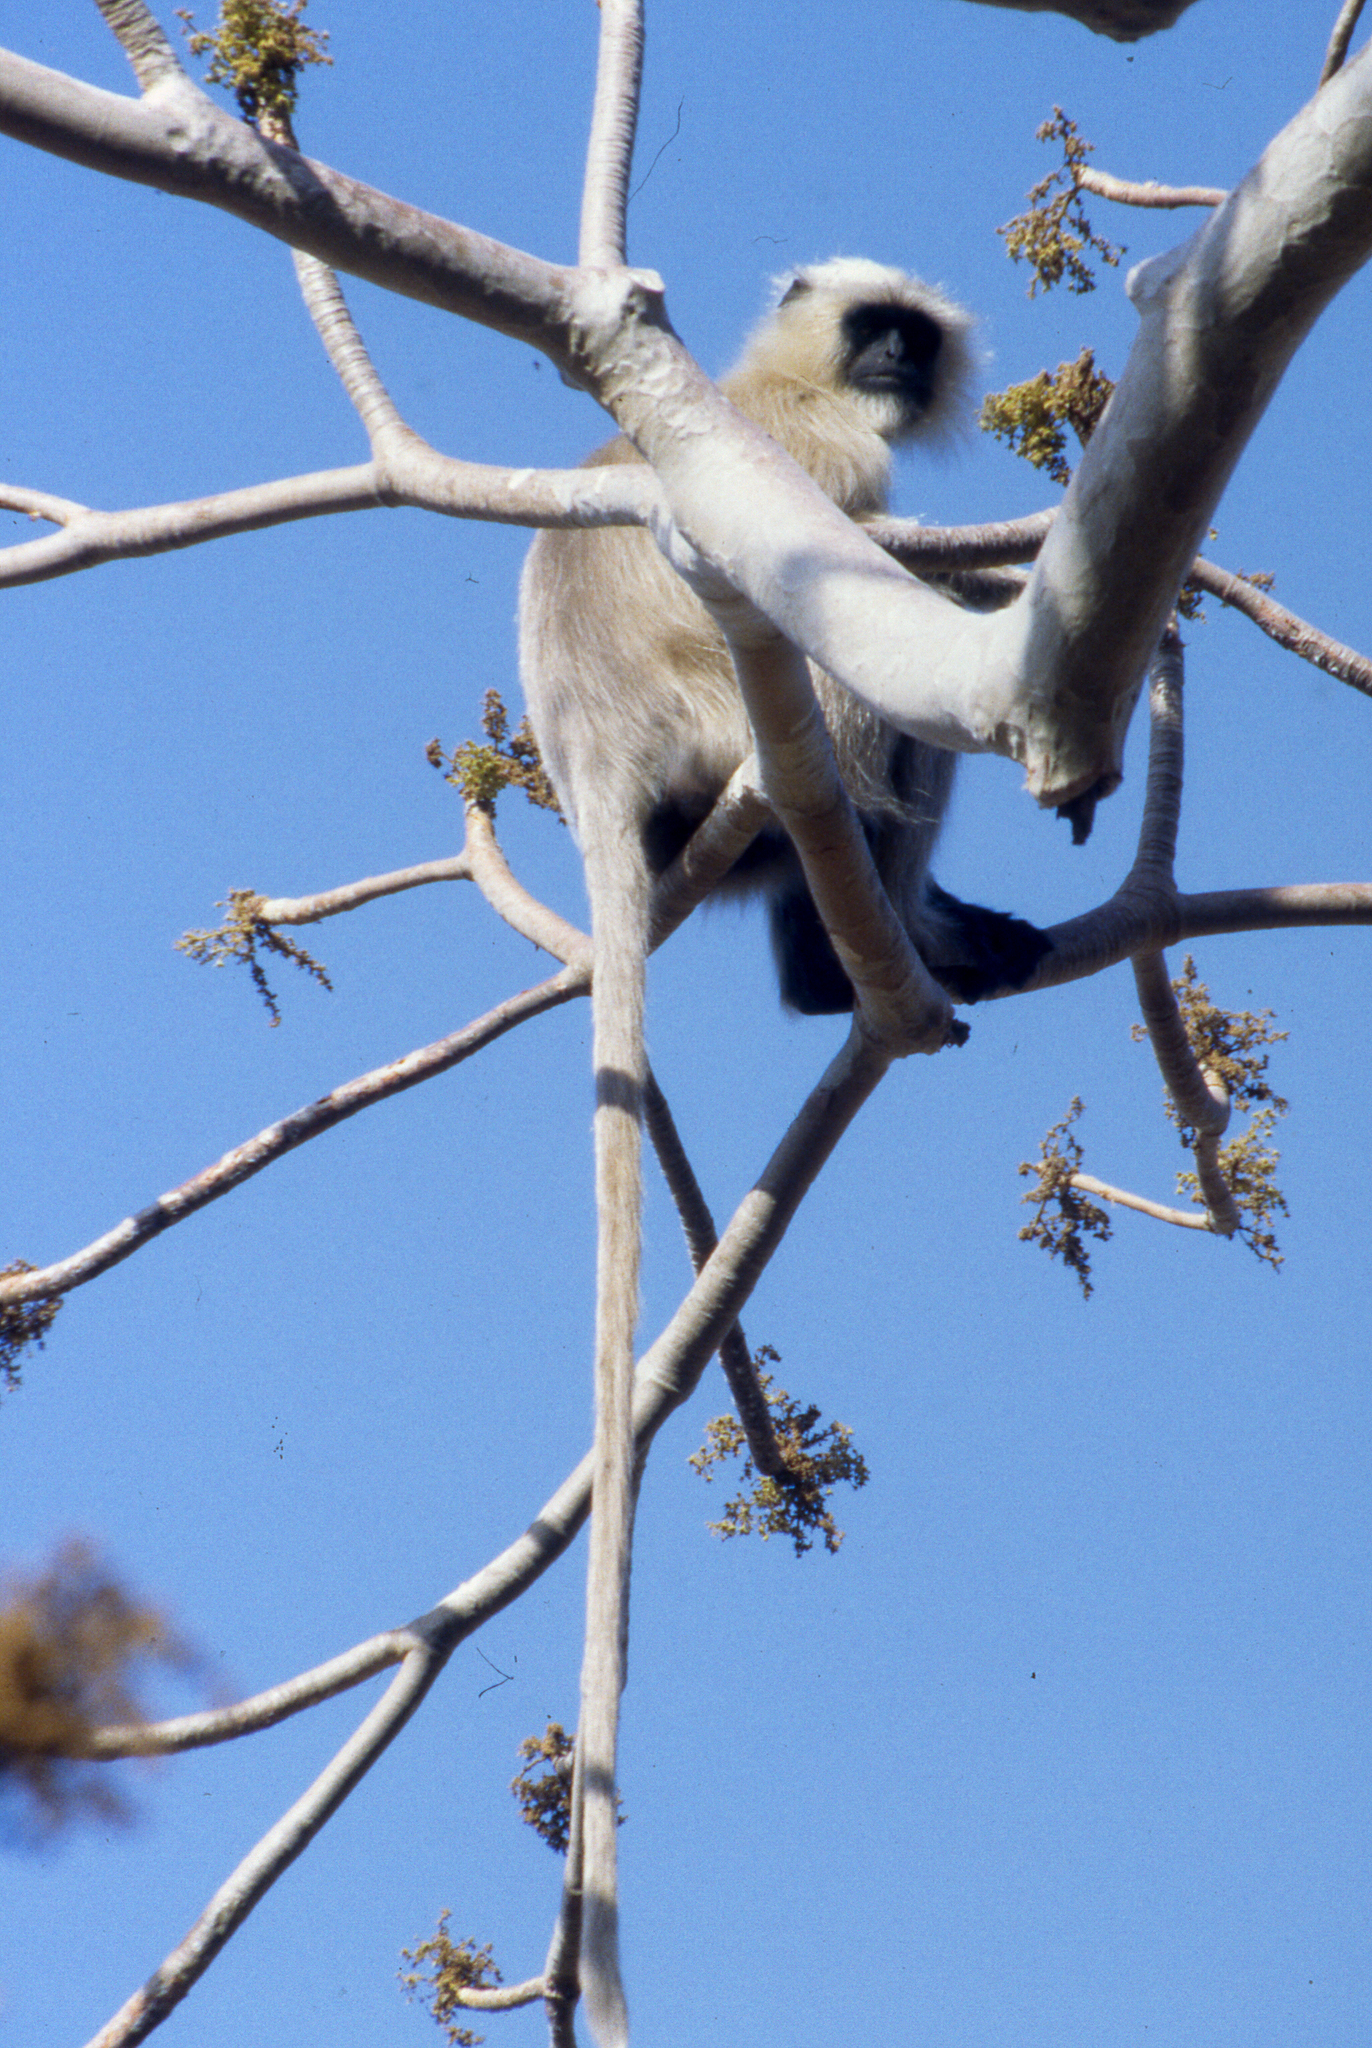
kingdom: Animalia
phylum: Chordata
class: Mammalia
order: Primates
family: Cercopithecidae
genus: Semnopithecus
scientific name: Semnopithecus entellus
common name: Northern plains gray langur
